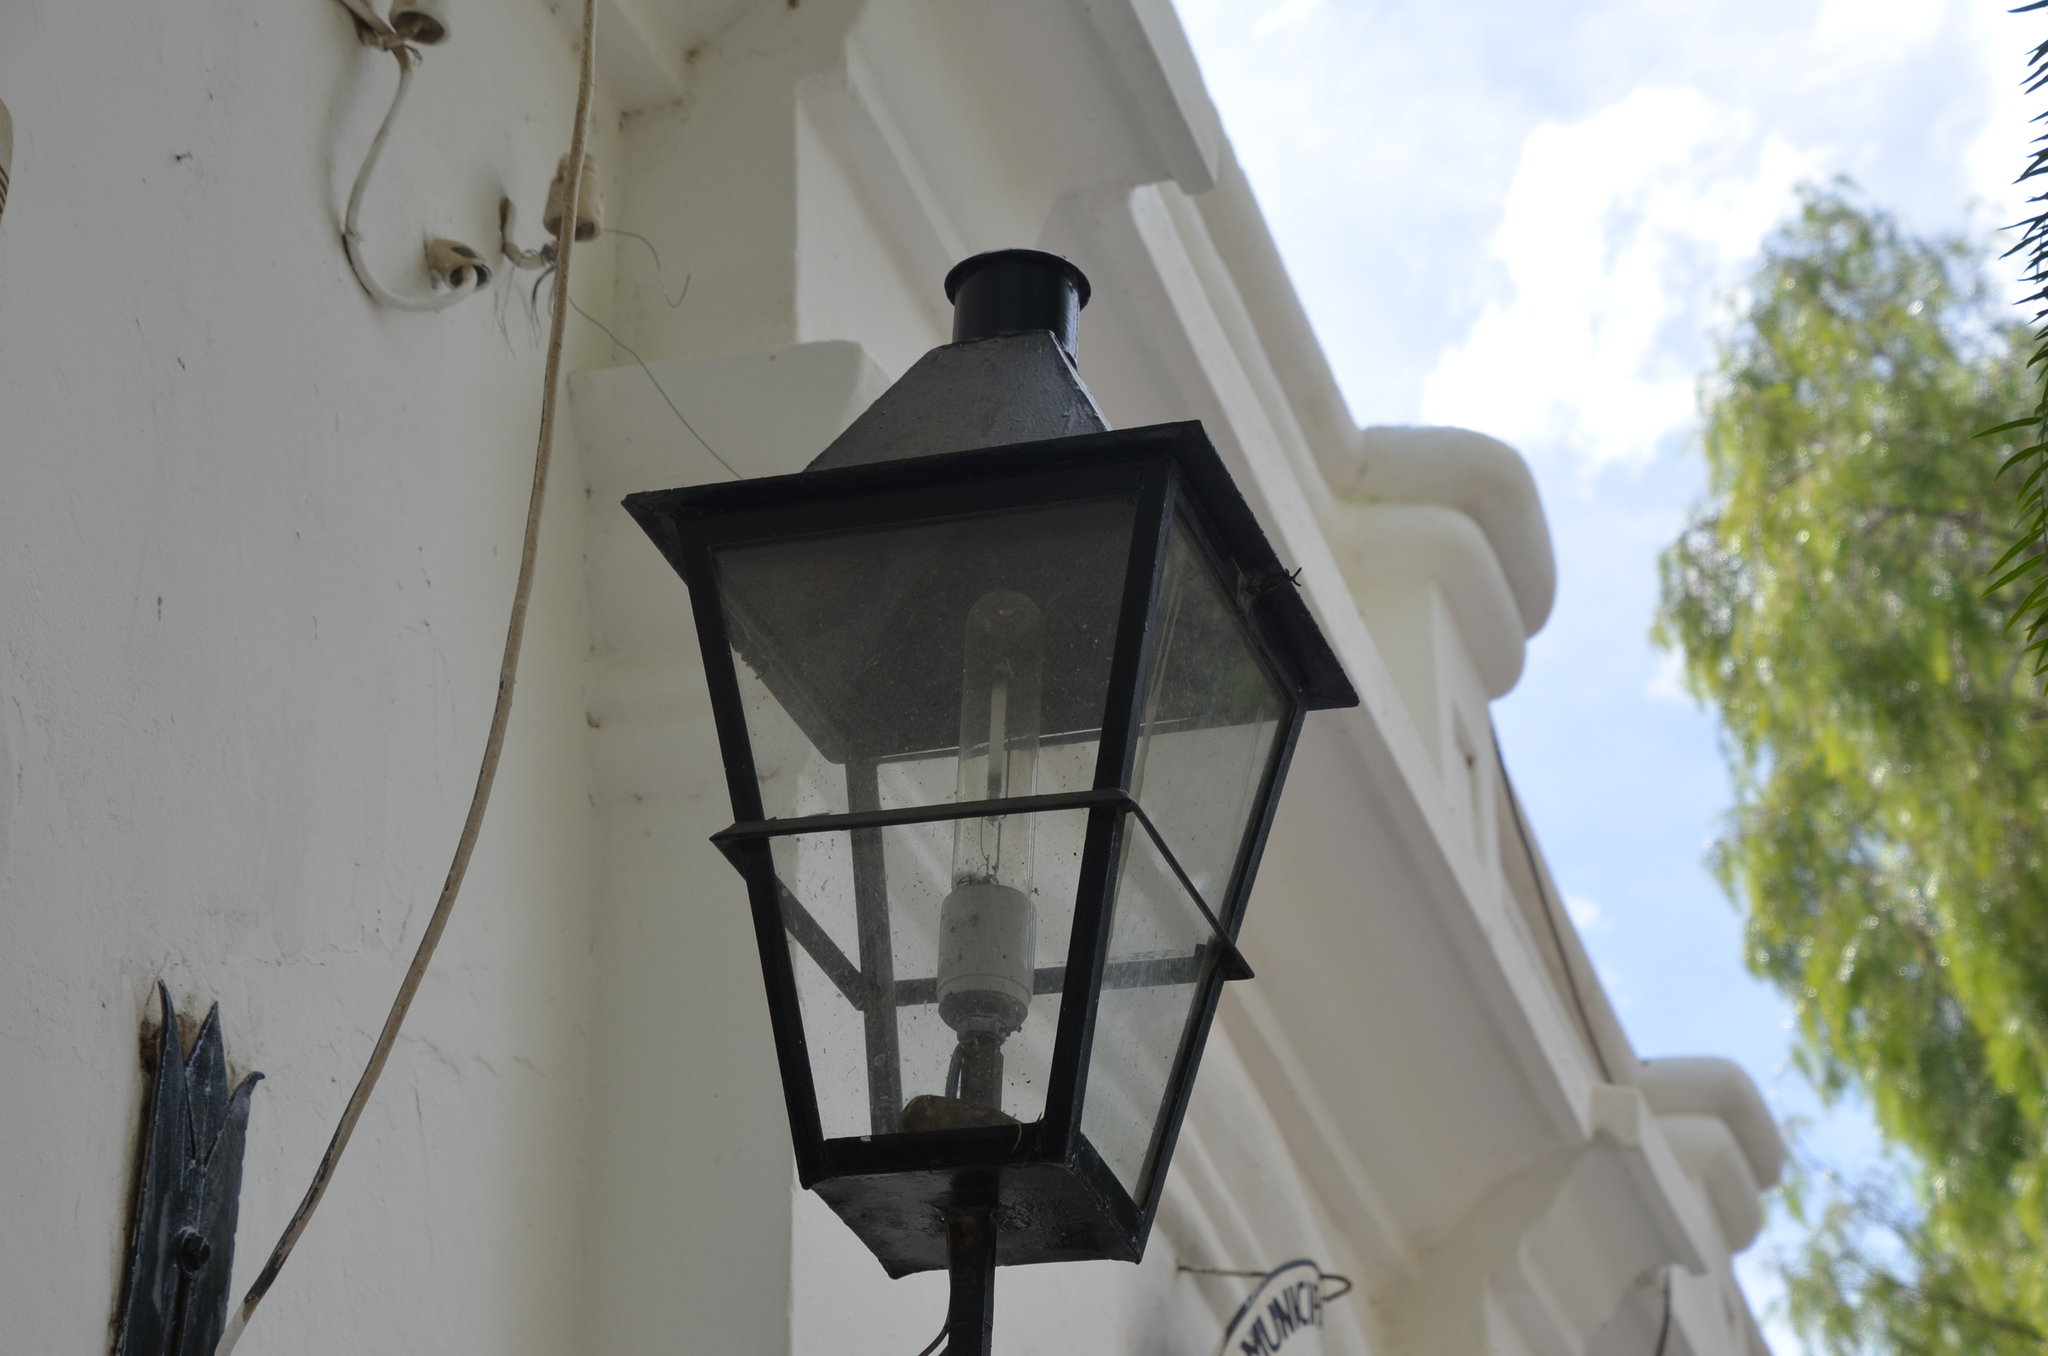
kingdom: Animalia
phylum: Chordata
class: Aves
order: Passeriformes
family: Passeridae
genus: Passer
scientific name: Passer domesticus
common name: House sparrow
